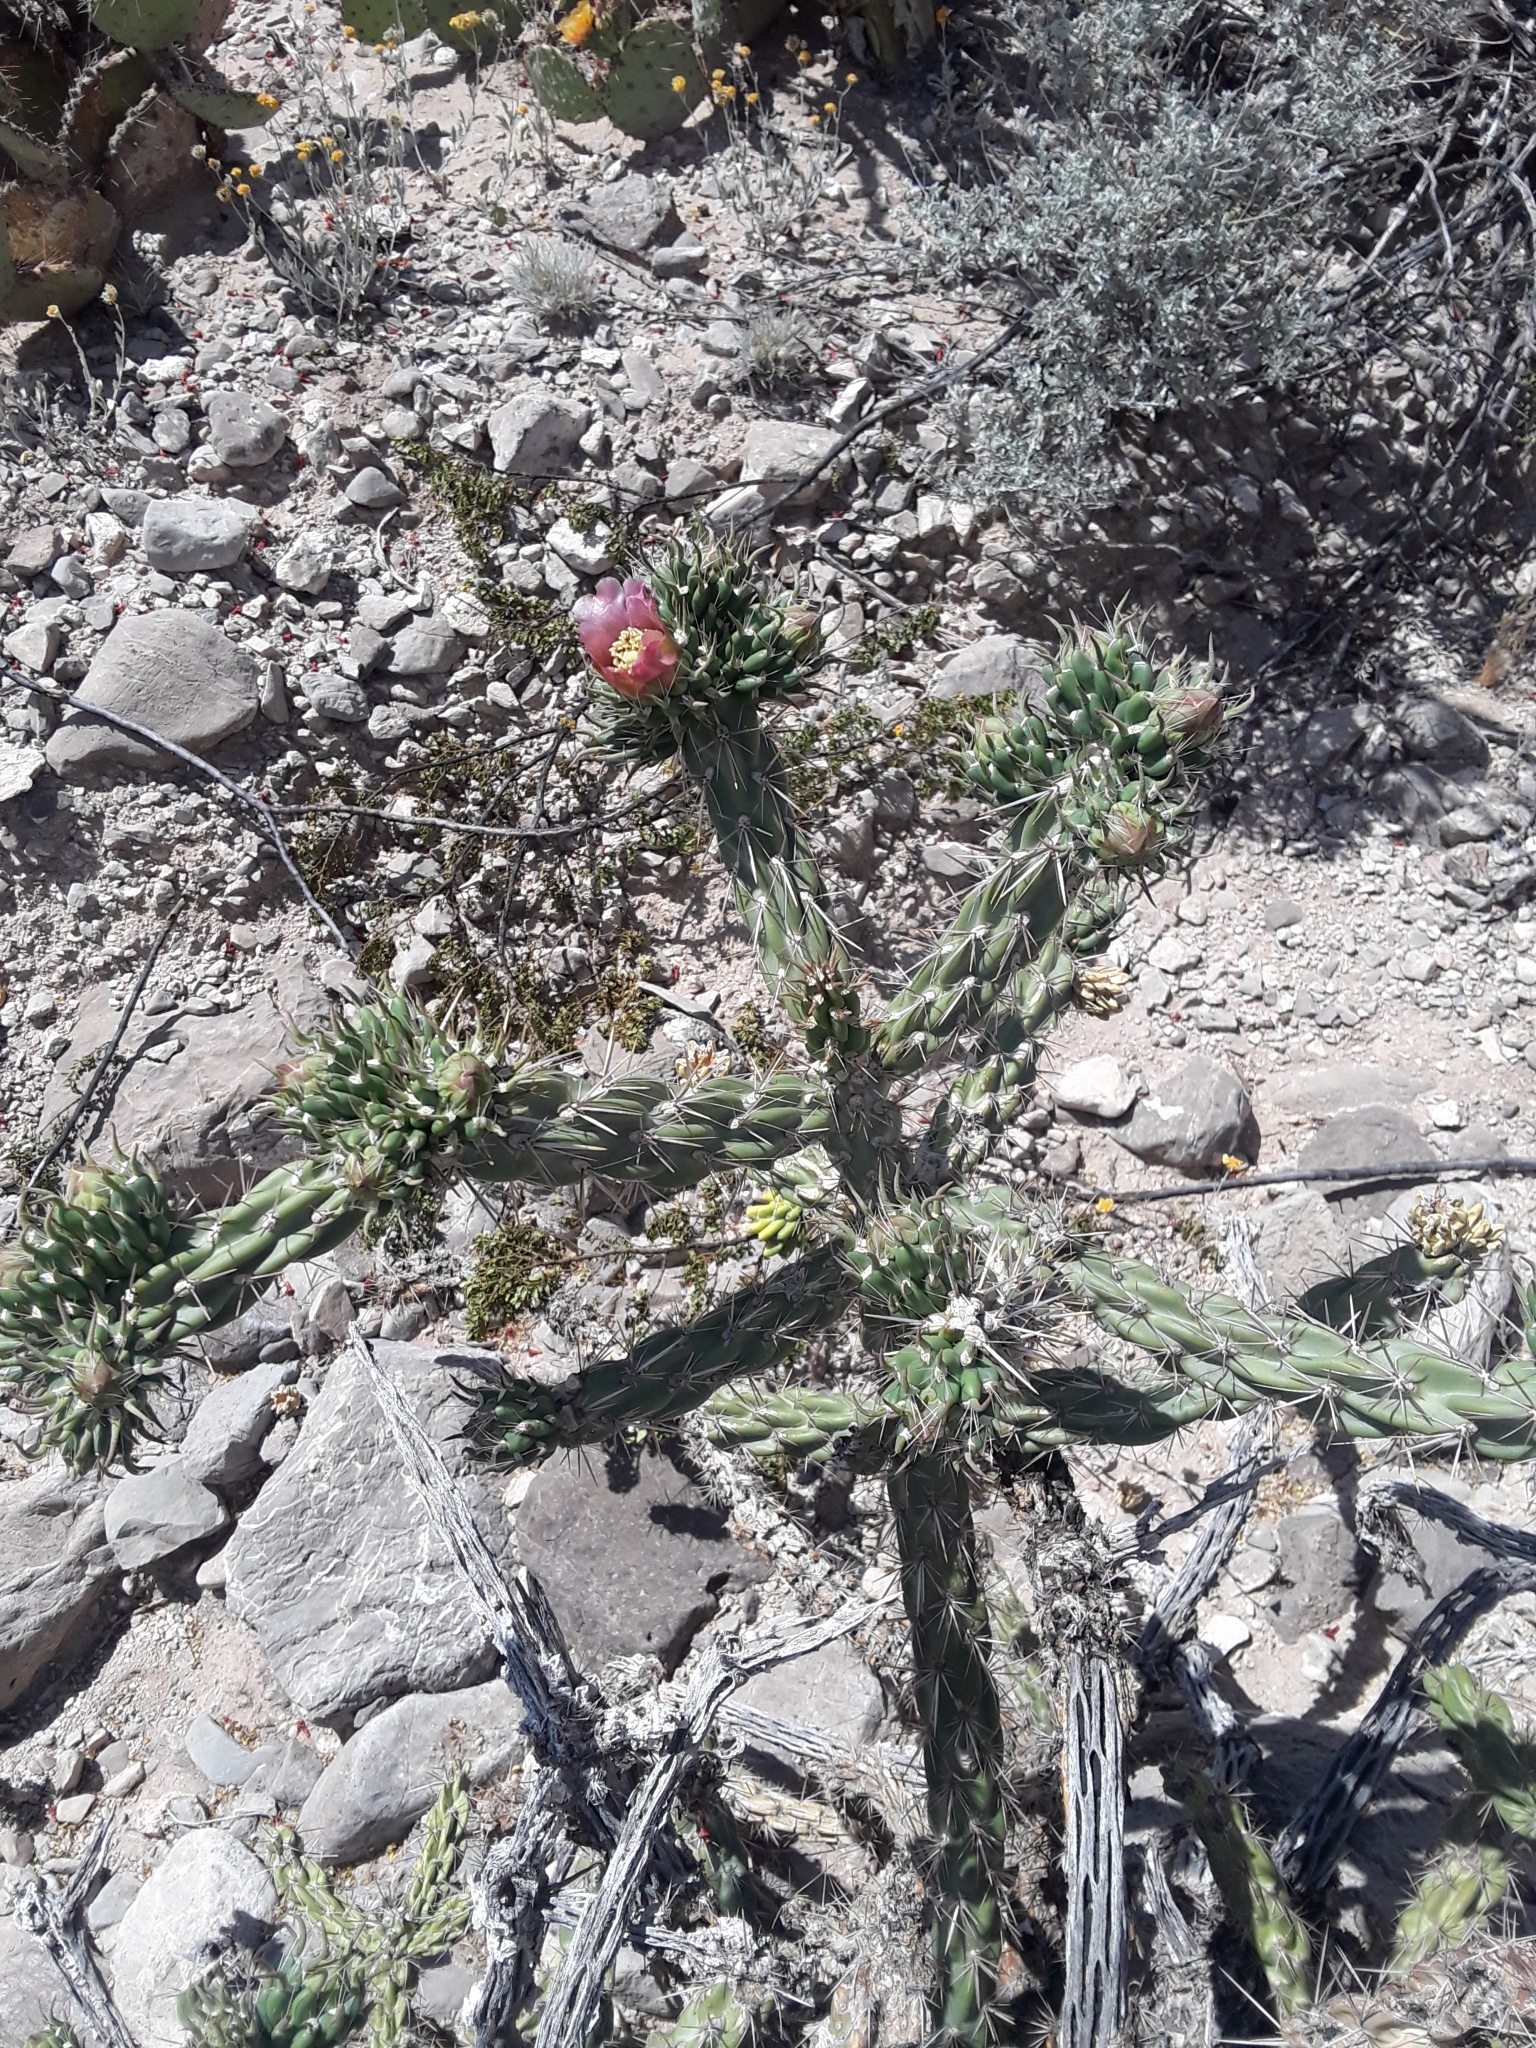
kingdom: Plantae
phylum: Tracheophyta
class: Magnoliopsida
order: Caryophyllales
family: Cactaceae
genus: Cylindropuntia
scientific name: Cylindropuntia imbricata
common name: Candelabrum cactus
